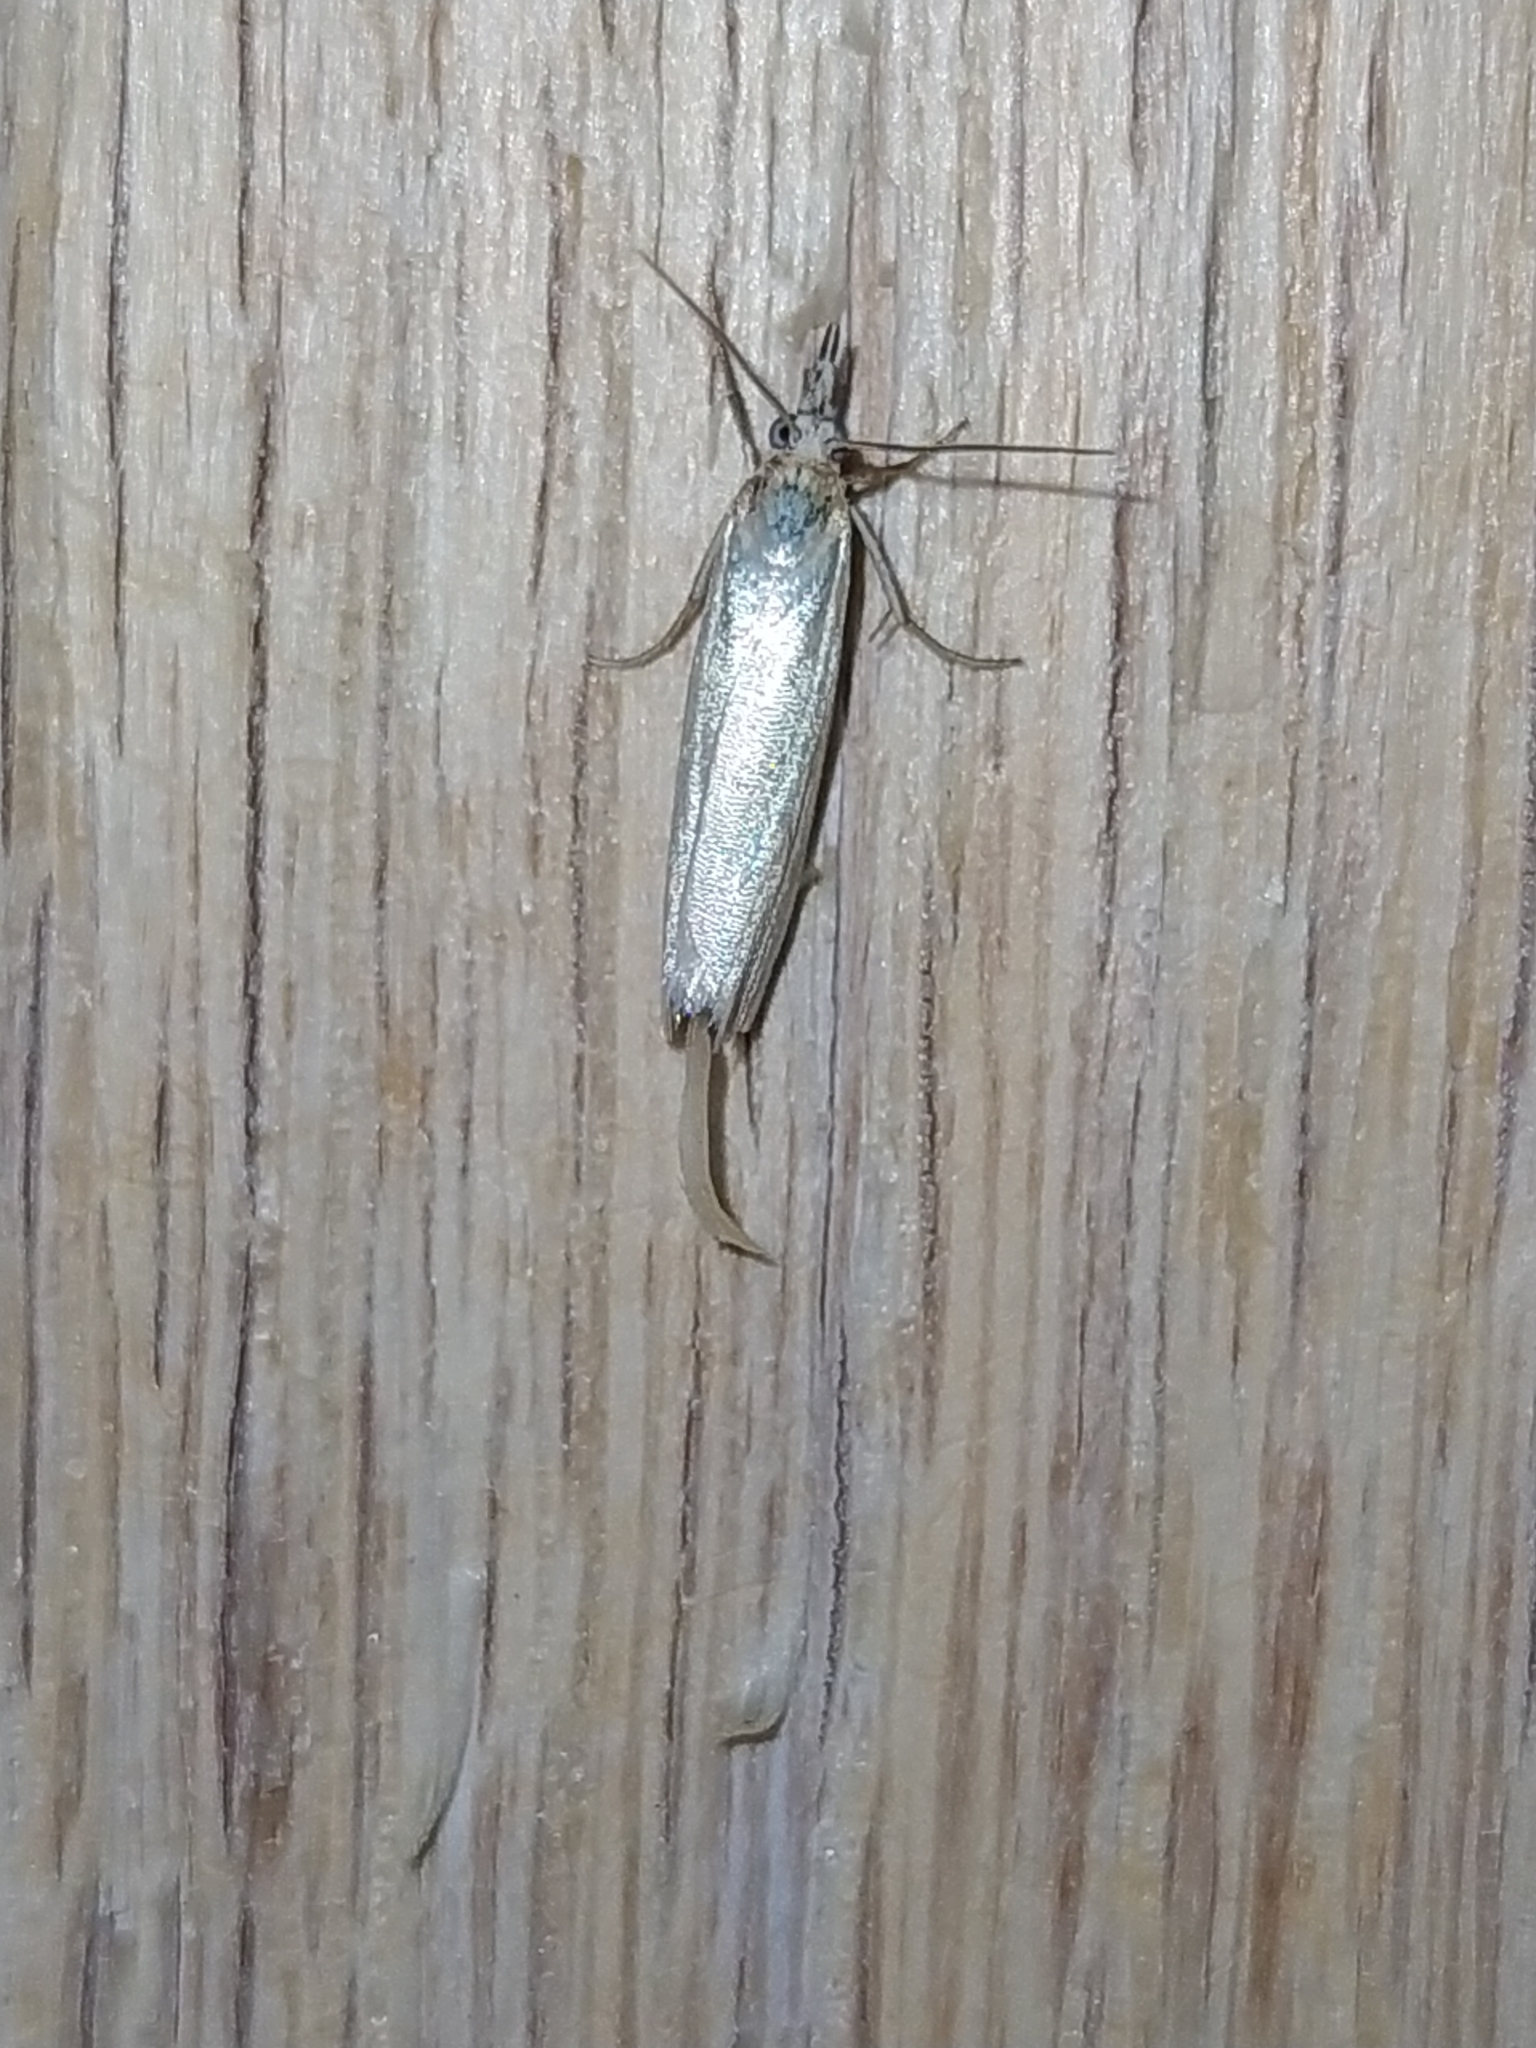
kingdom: Animalia
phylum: Arthropoda
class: Insecta
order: Lepidoptera
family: Crambidae
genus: Crambus
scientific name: Crambus perlellus
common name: Yellow satin veneer
